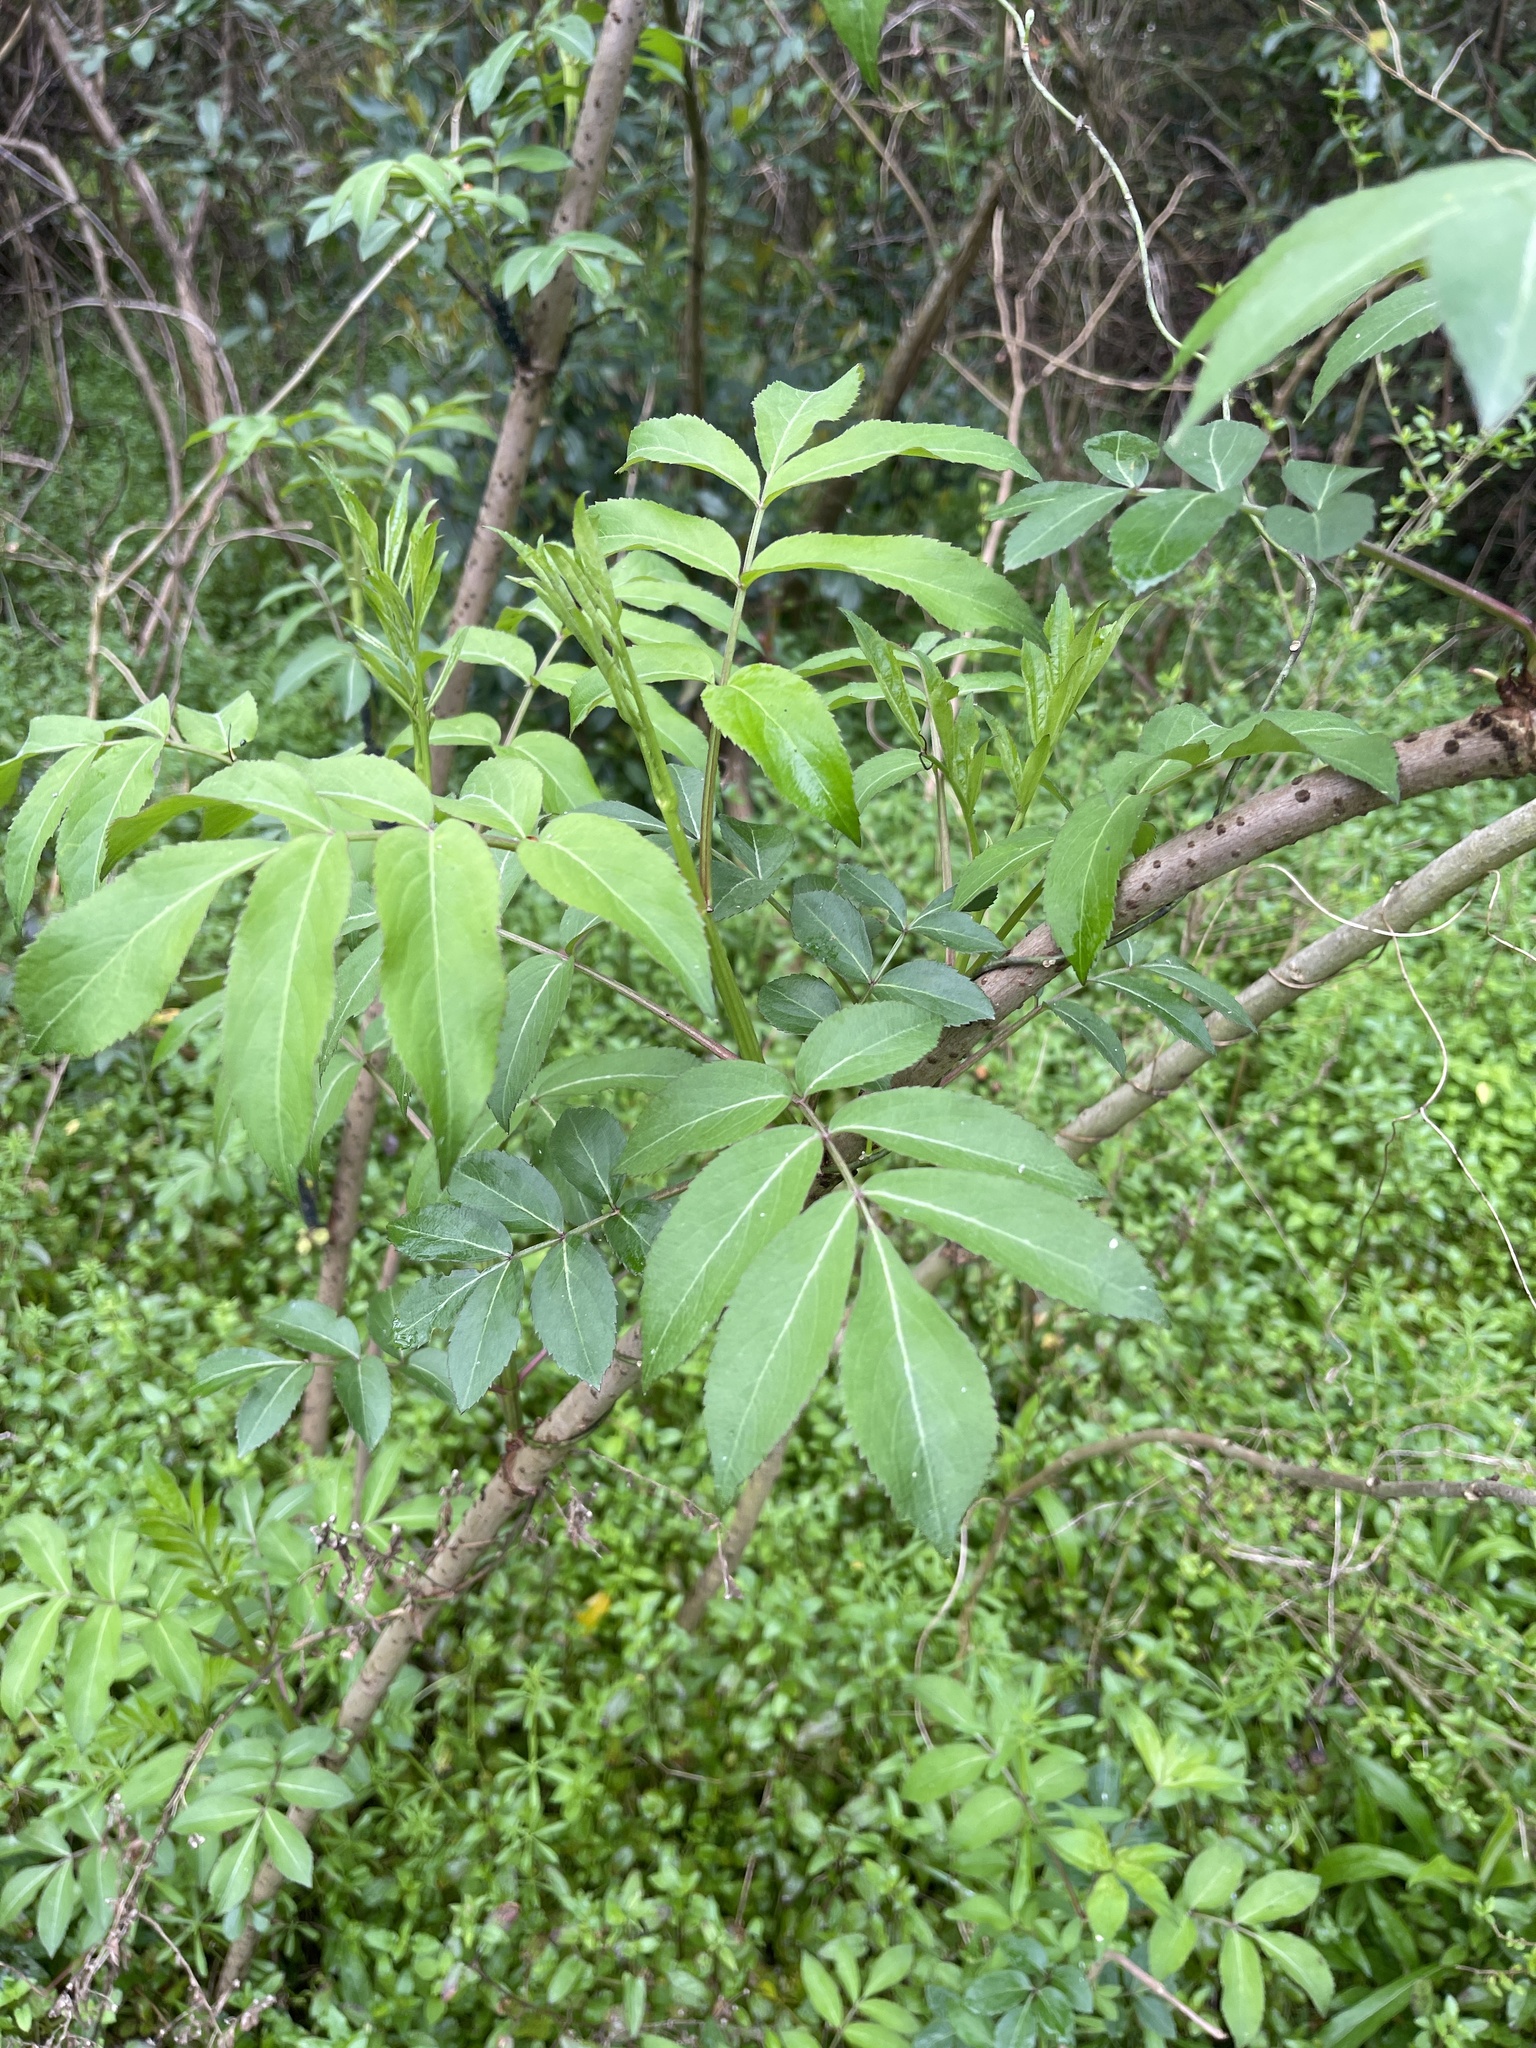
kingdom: Plantae
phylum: Tracheophyta
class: Magnoliopsida
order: Dipsacales
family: Viburnaceae
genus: Sambucus
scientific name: Sambucus canadensis
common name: American elder
